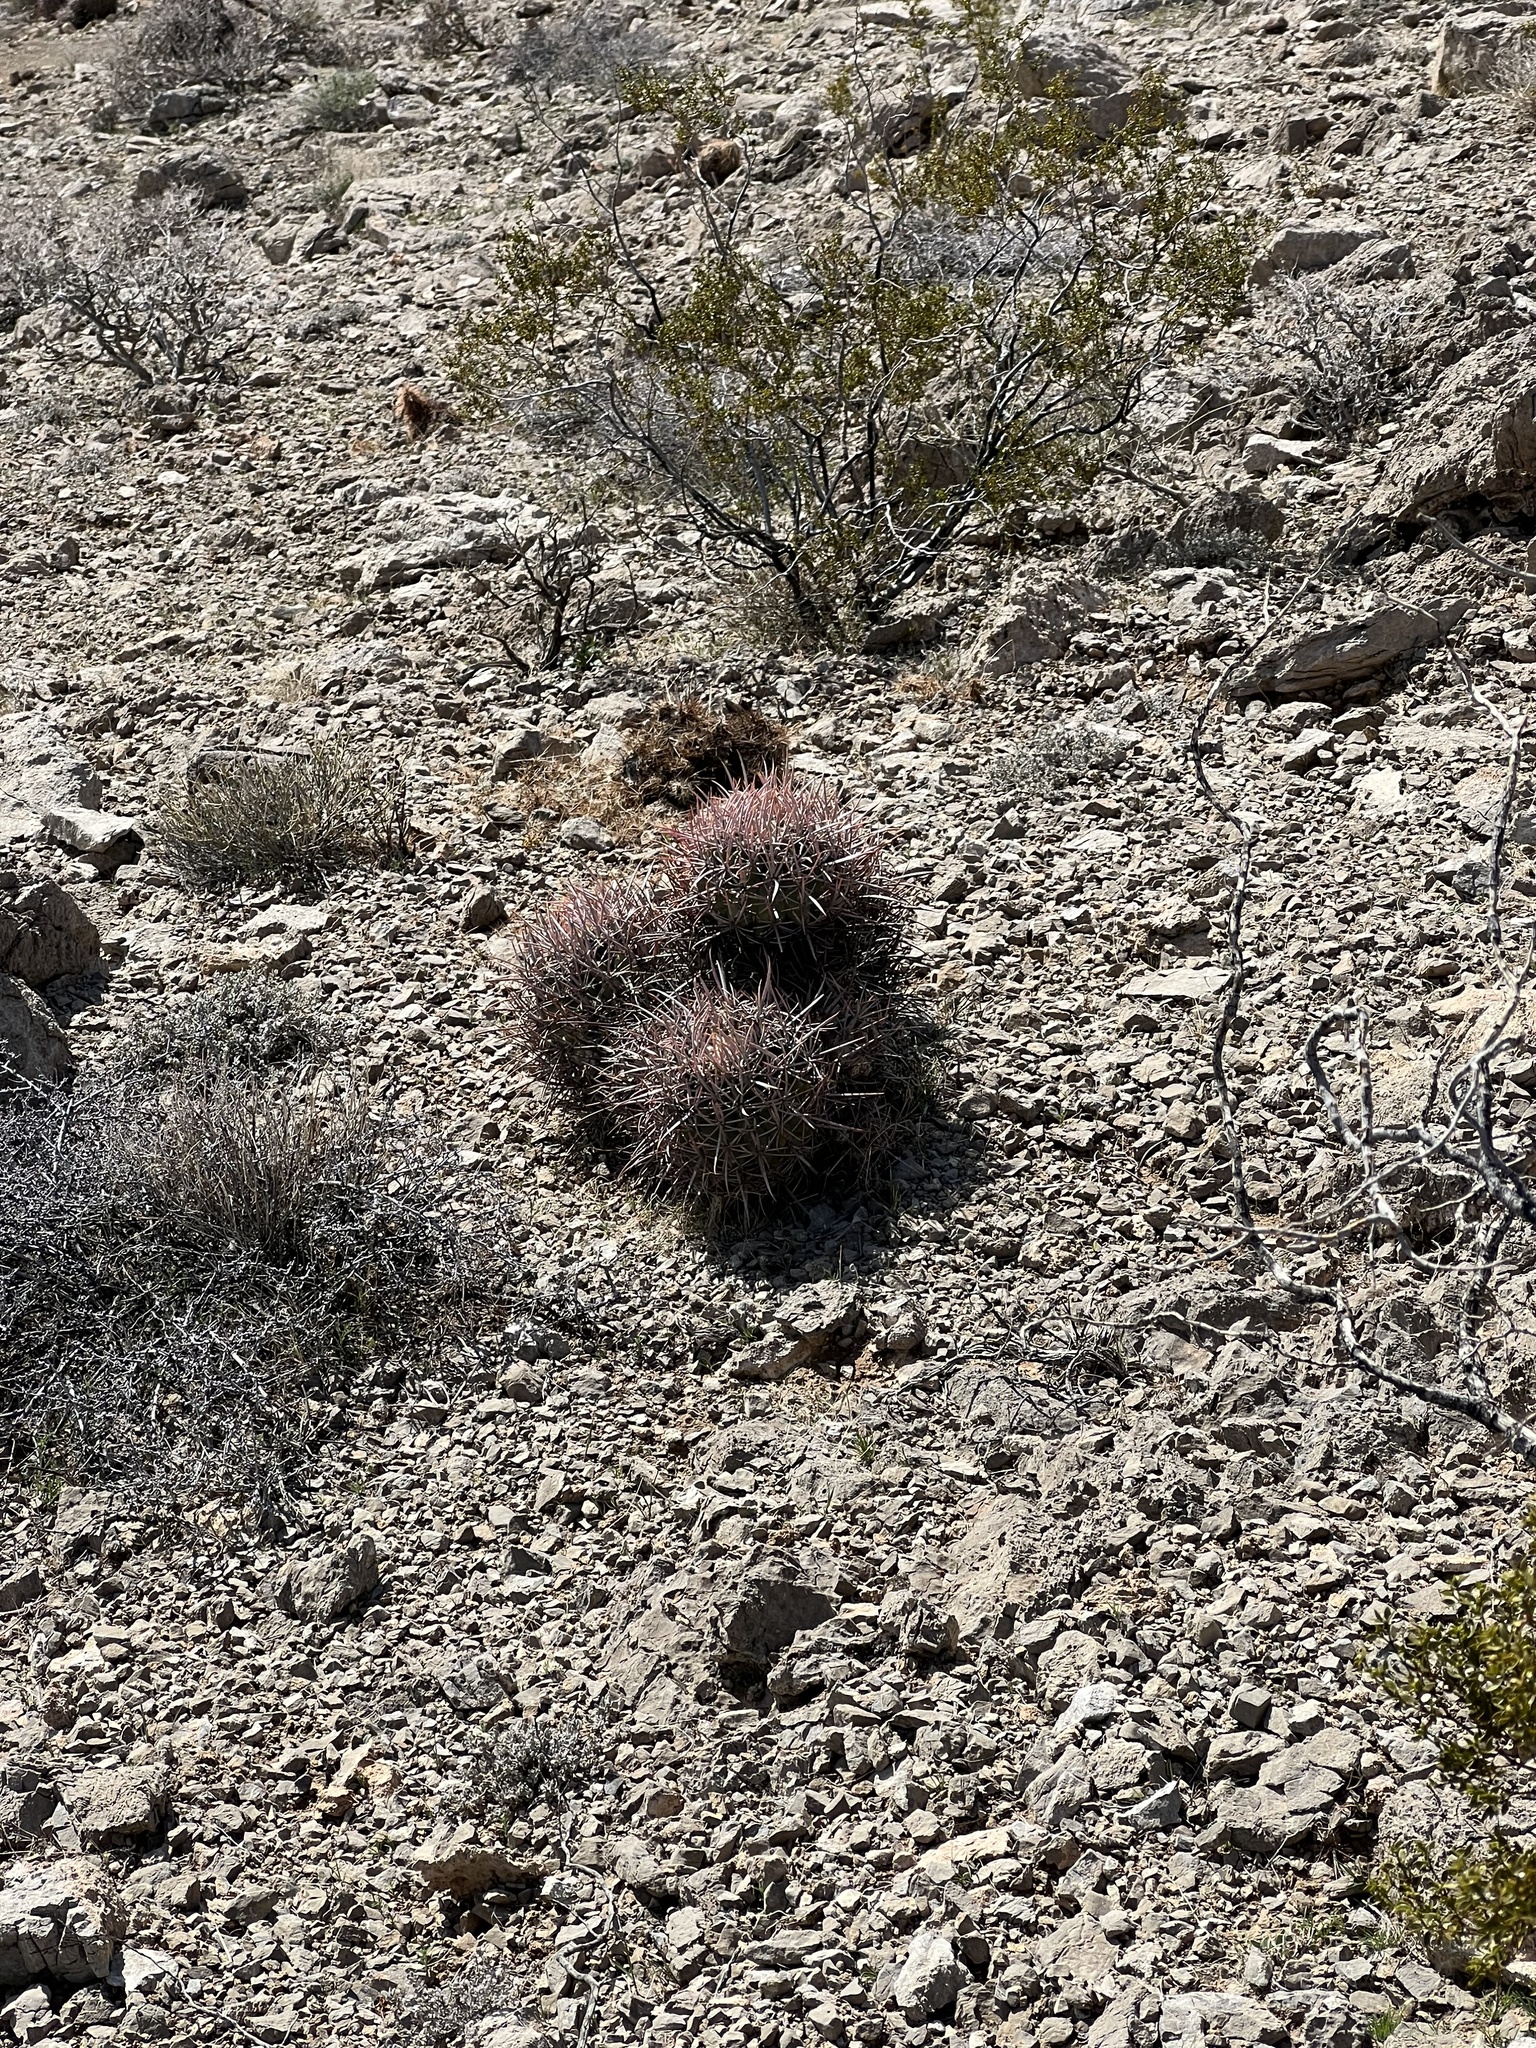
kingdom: Plantae
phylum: Tracheophyta
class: Magnoliopsida
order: Caryophyllales
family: Cactaceae
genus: Echinocactus
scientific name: Echinocactus polycephalus
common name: Cottontop cactus
